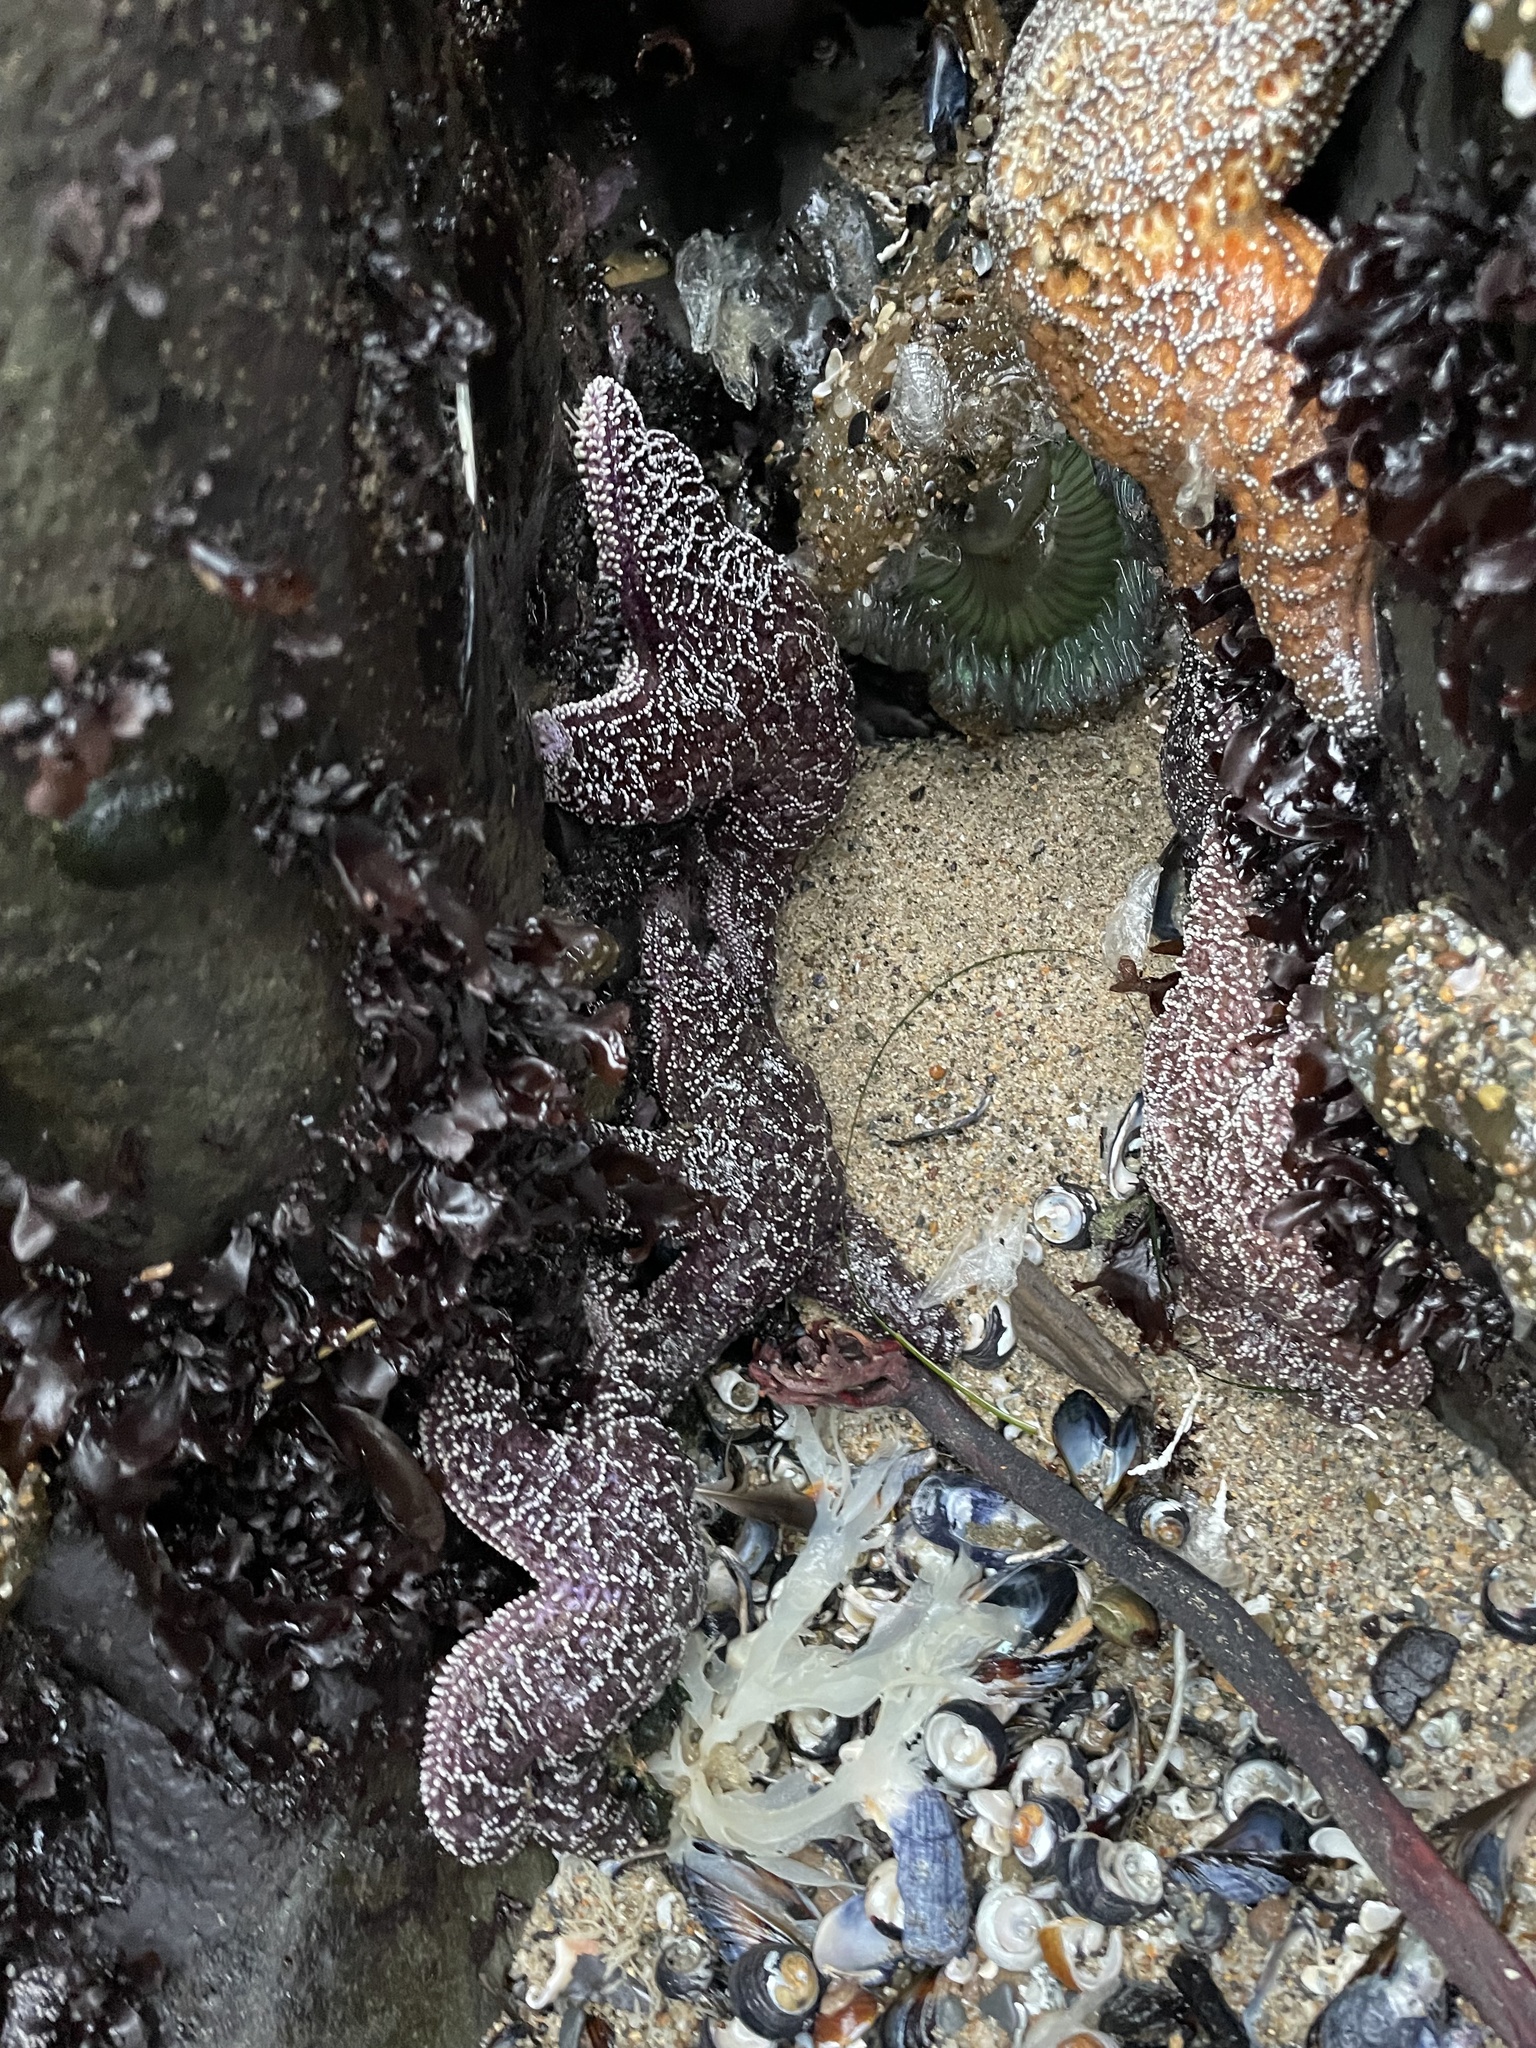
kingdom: Animalia
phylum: Echinodermata
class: Asteroidea
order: Forcipulatida
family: Asteriidae
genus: Pisaster
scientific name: Pisaster ochraceus
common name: Ochre stars
